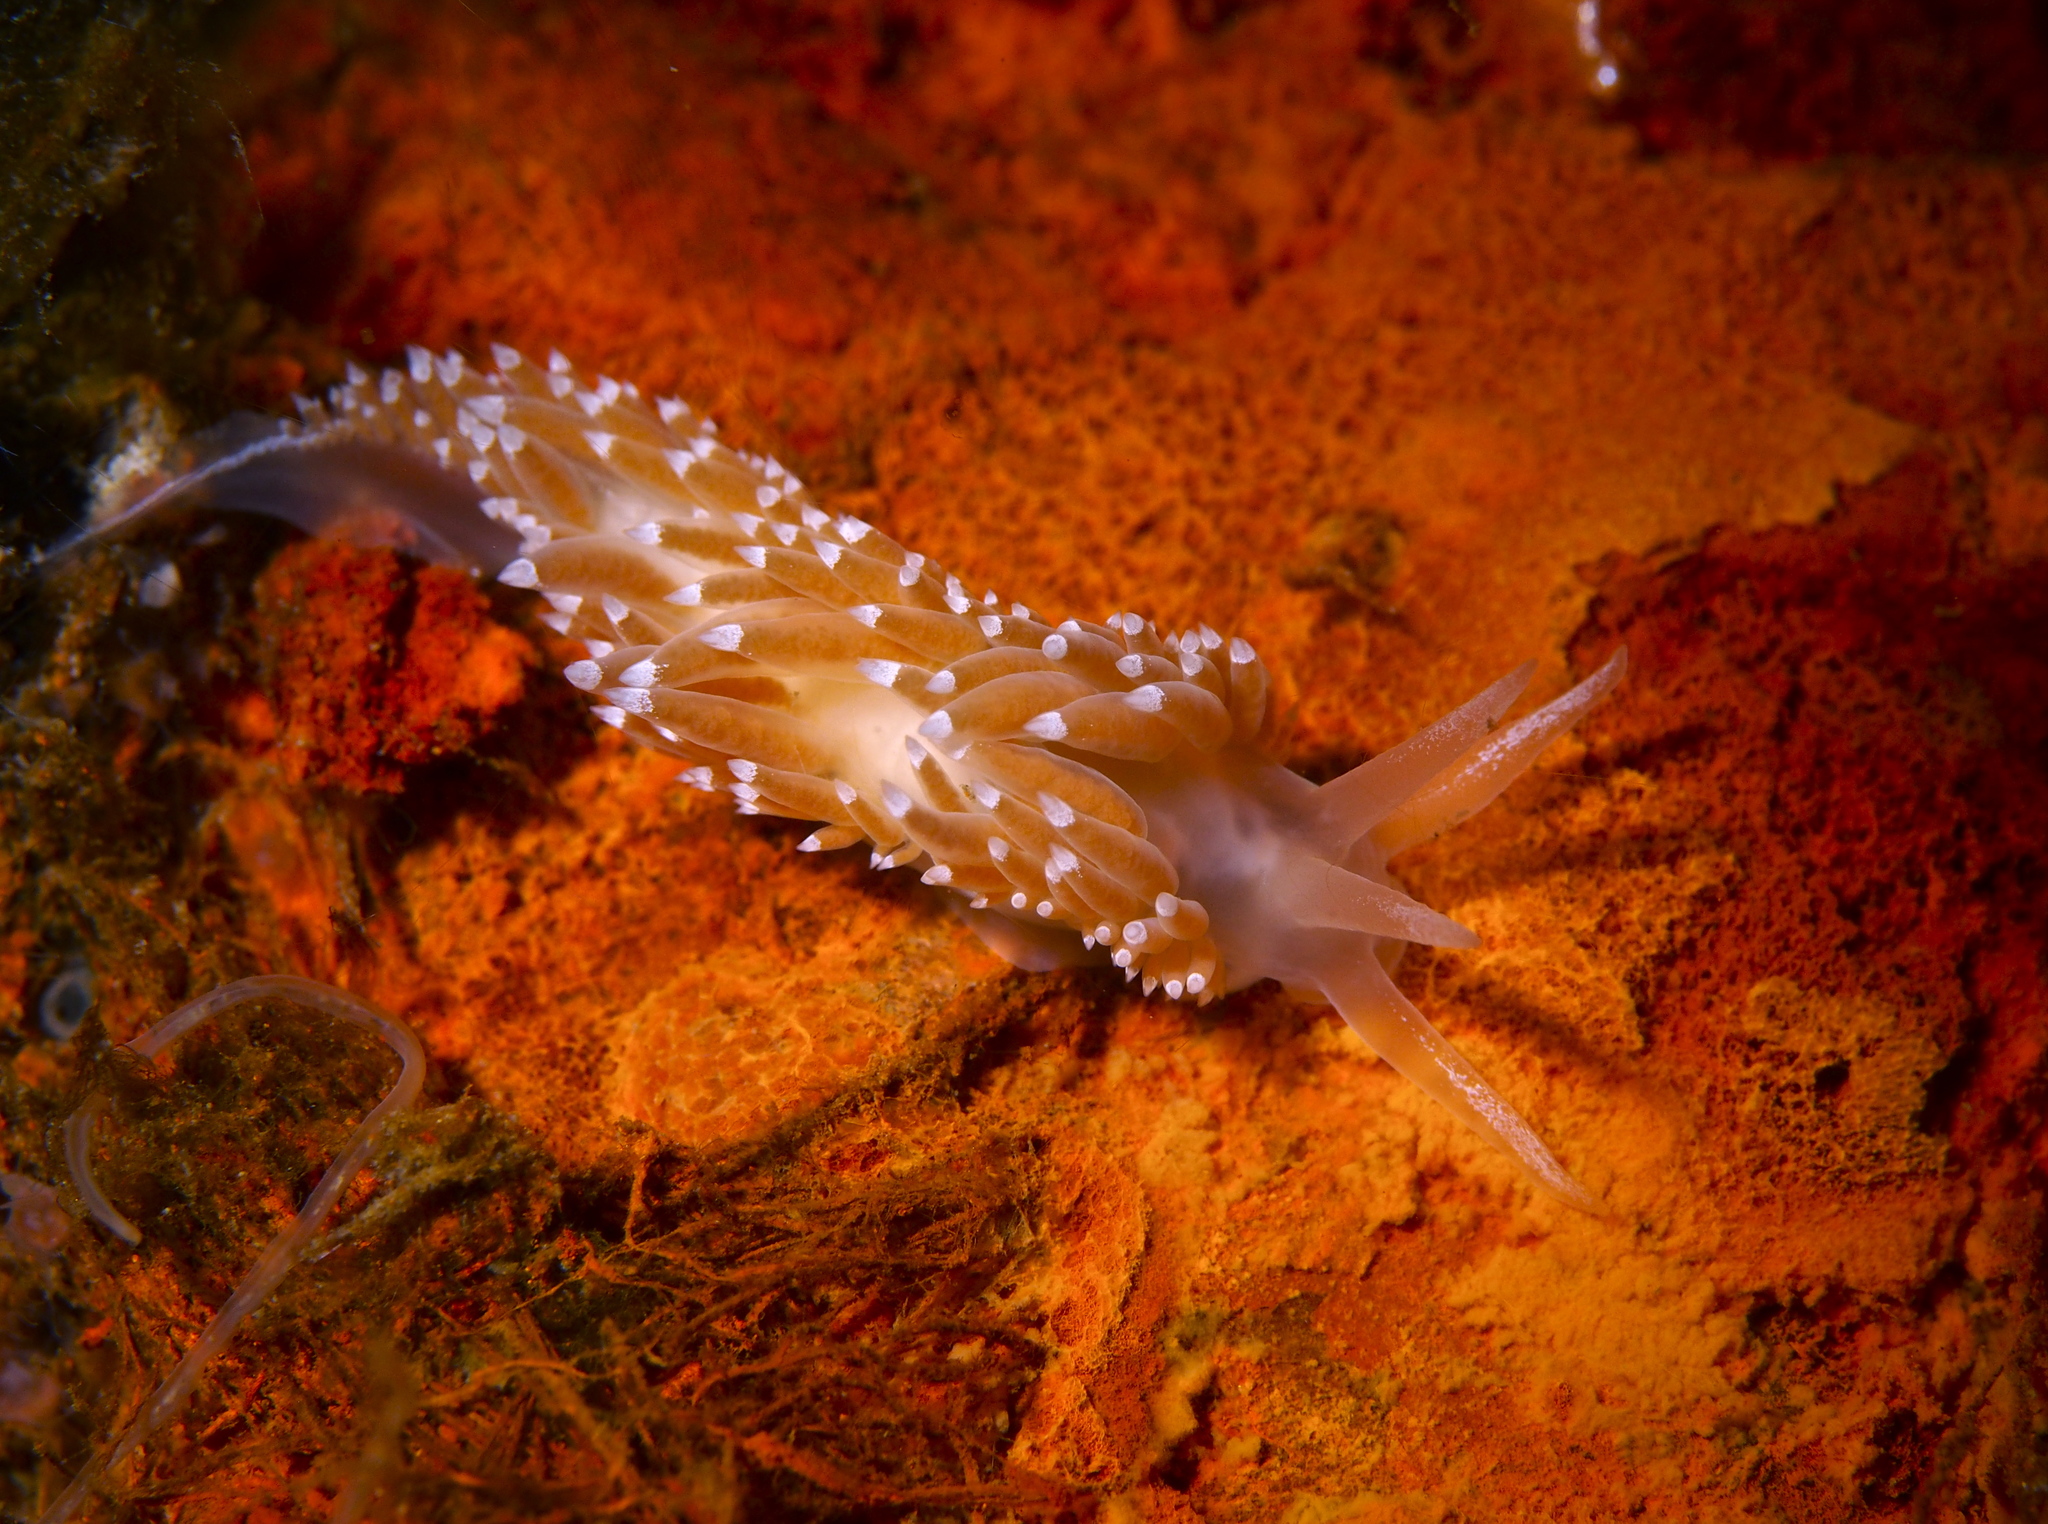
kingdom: Animalia
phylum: Mollusca
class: Gastropoda
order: Nudibranchia
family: Coryphellidae
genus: Coryphella
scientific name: Coryphella verrucosa
